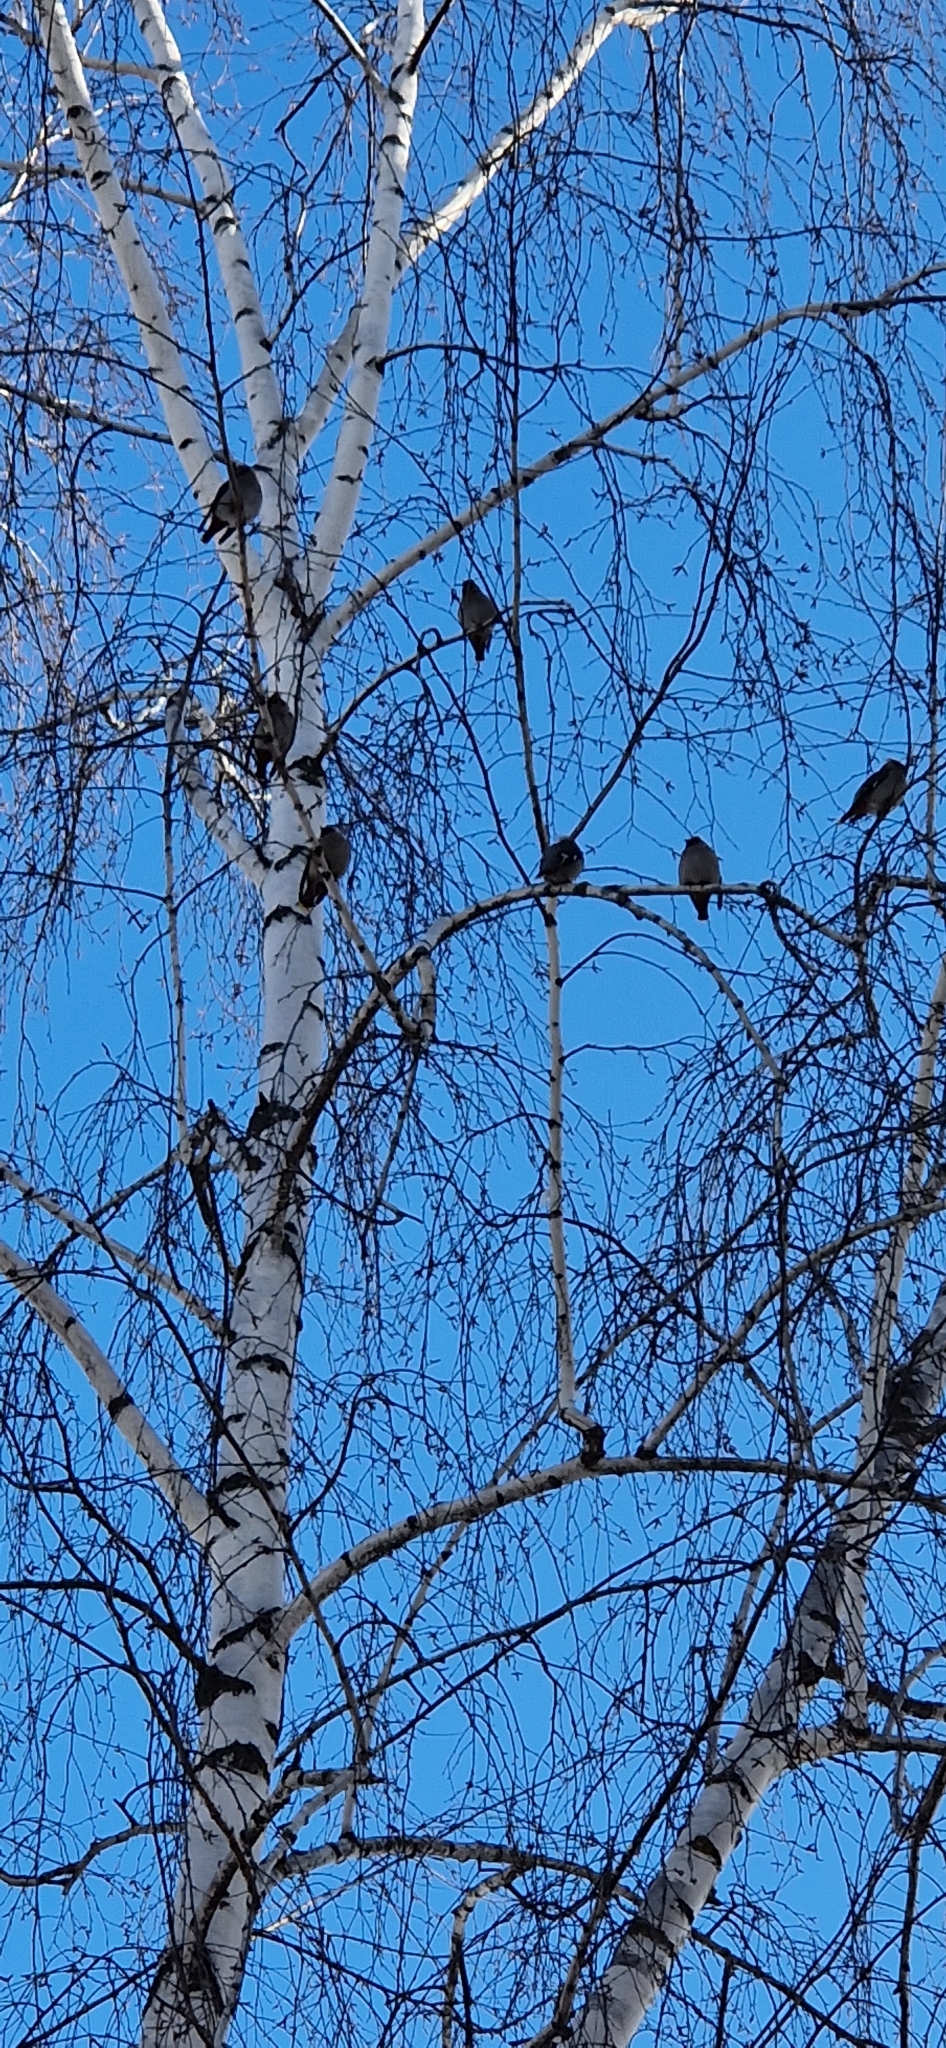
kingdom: Animalia
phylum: Chordata
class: Aves
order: Passeriformes
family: Bombycillidae
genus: Bombycilla
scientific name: Bombycilla garrulus
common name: Bohemian waxwing
